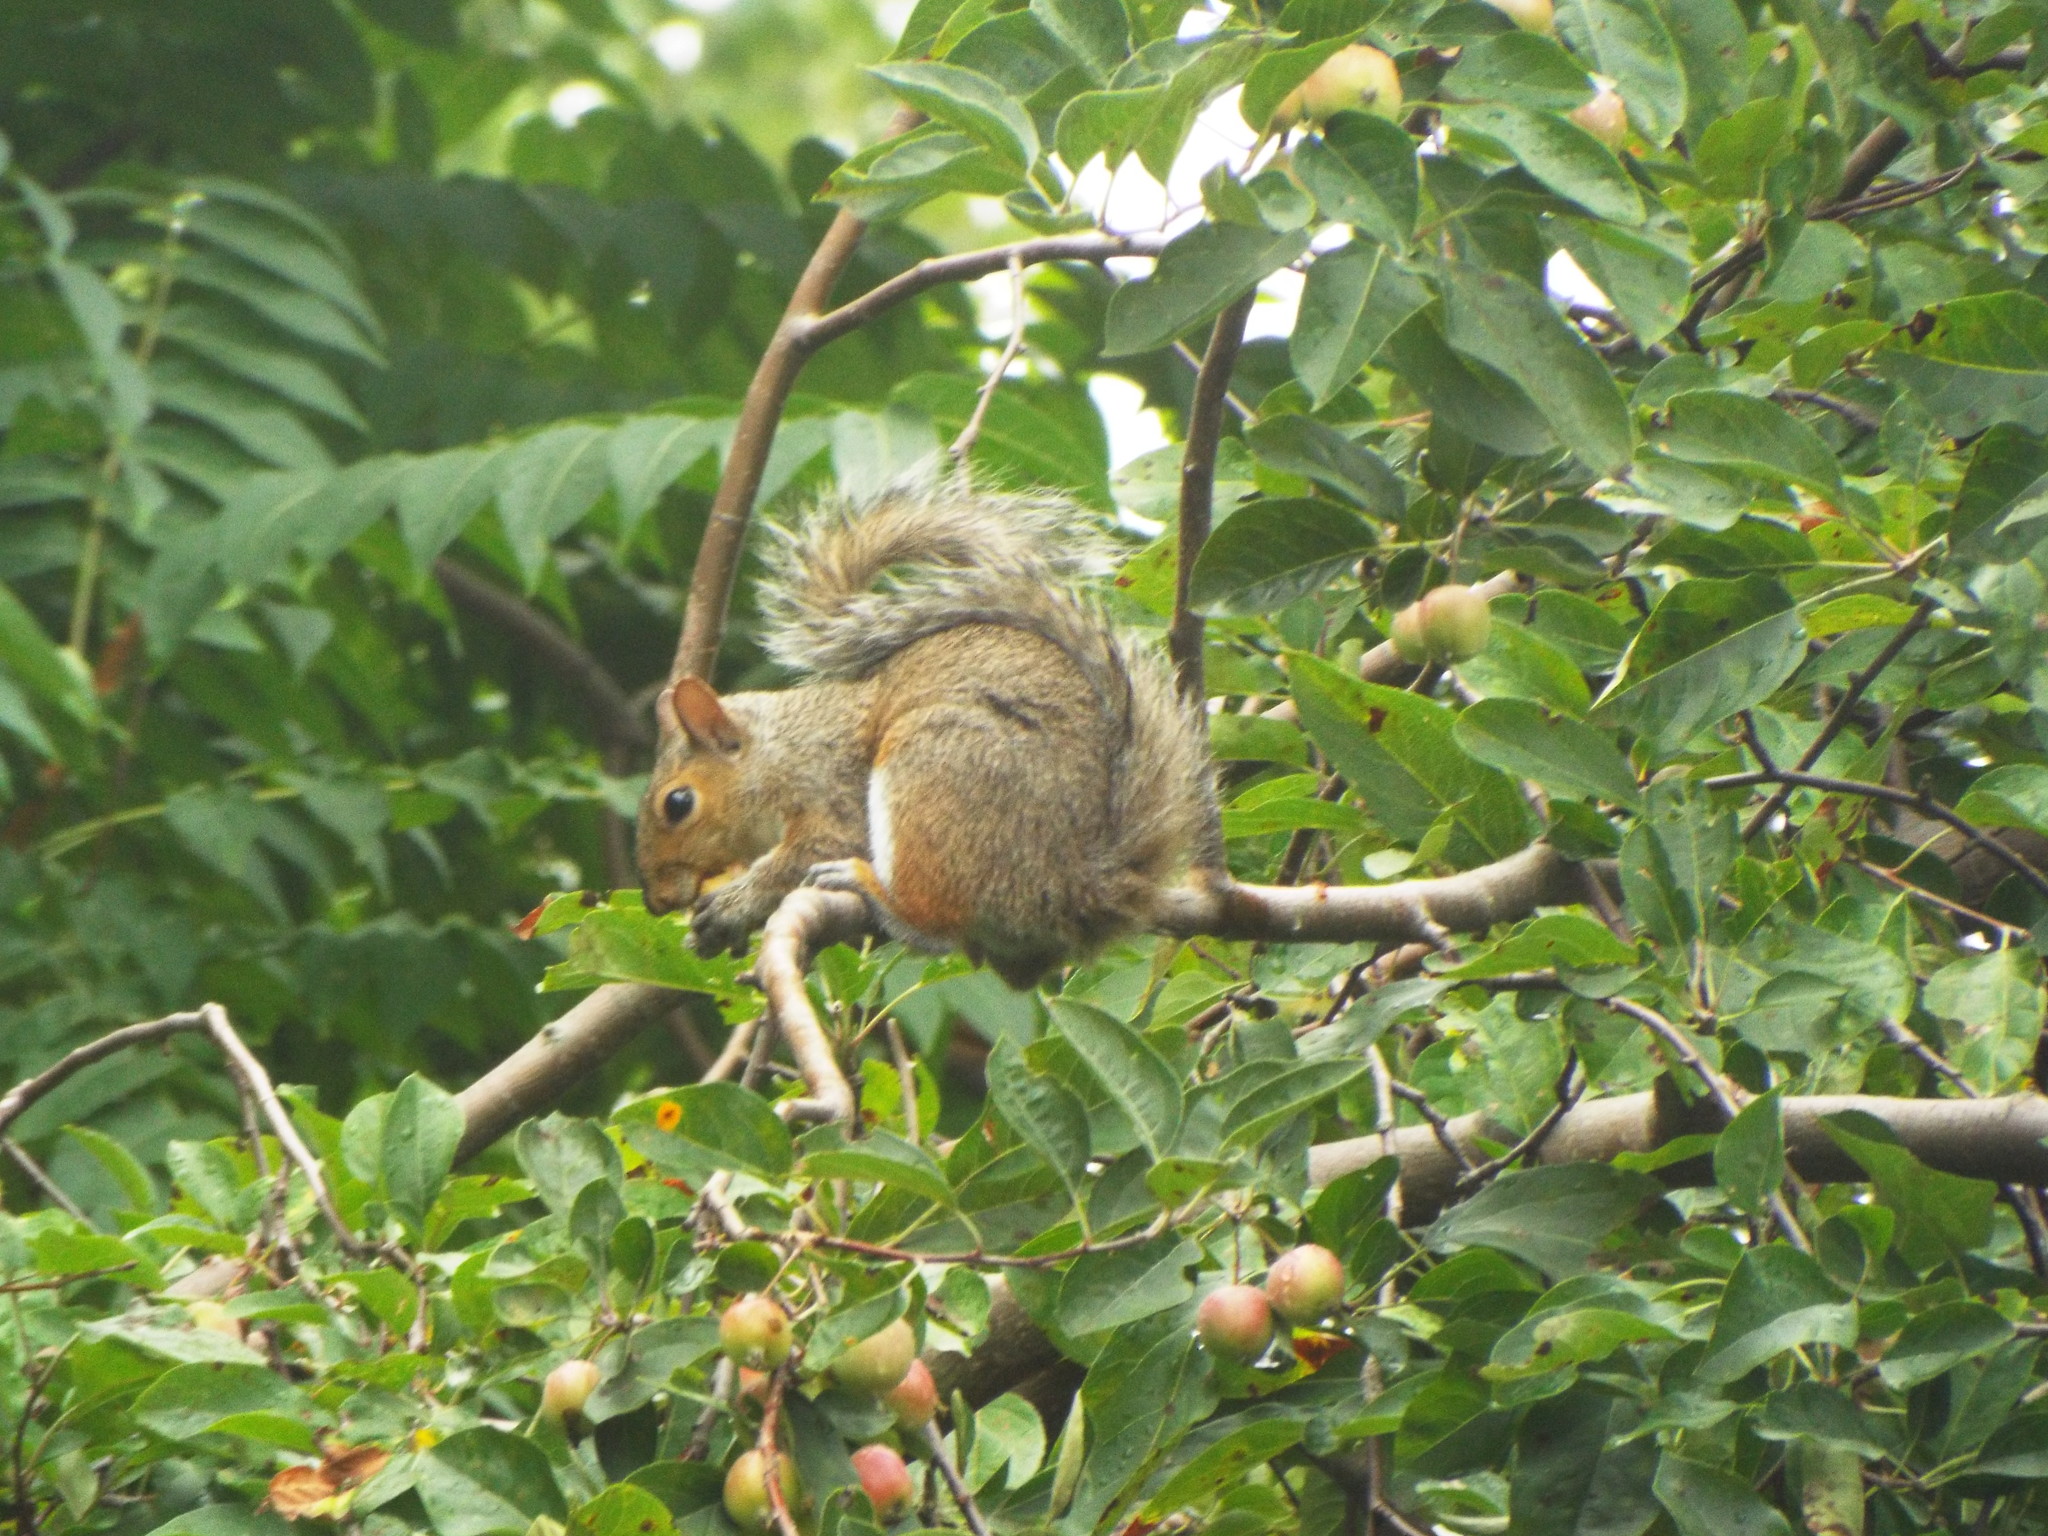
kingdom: Animalia
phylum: Chordata
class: Mammalia
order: Rodentia
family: Sciuridae
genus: Sciurus
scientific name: Sciurus carolinensis
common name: Eastern gray squirrel
